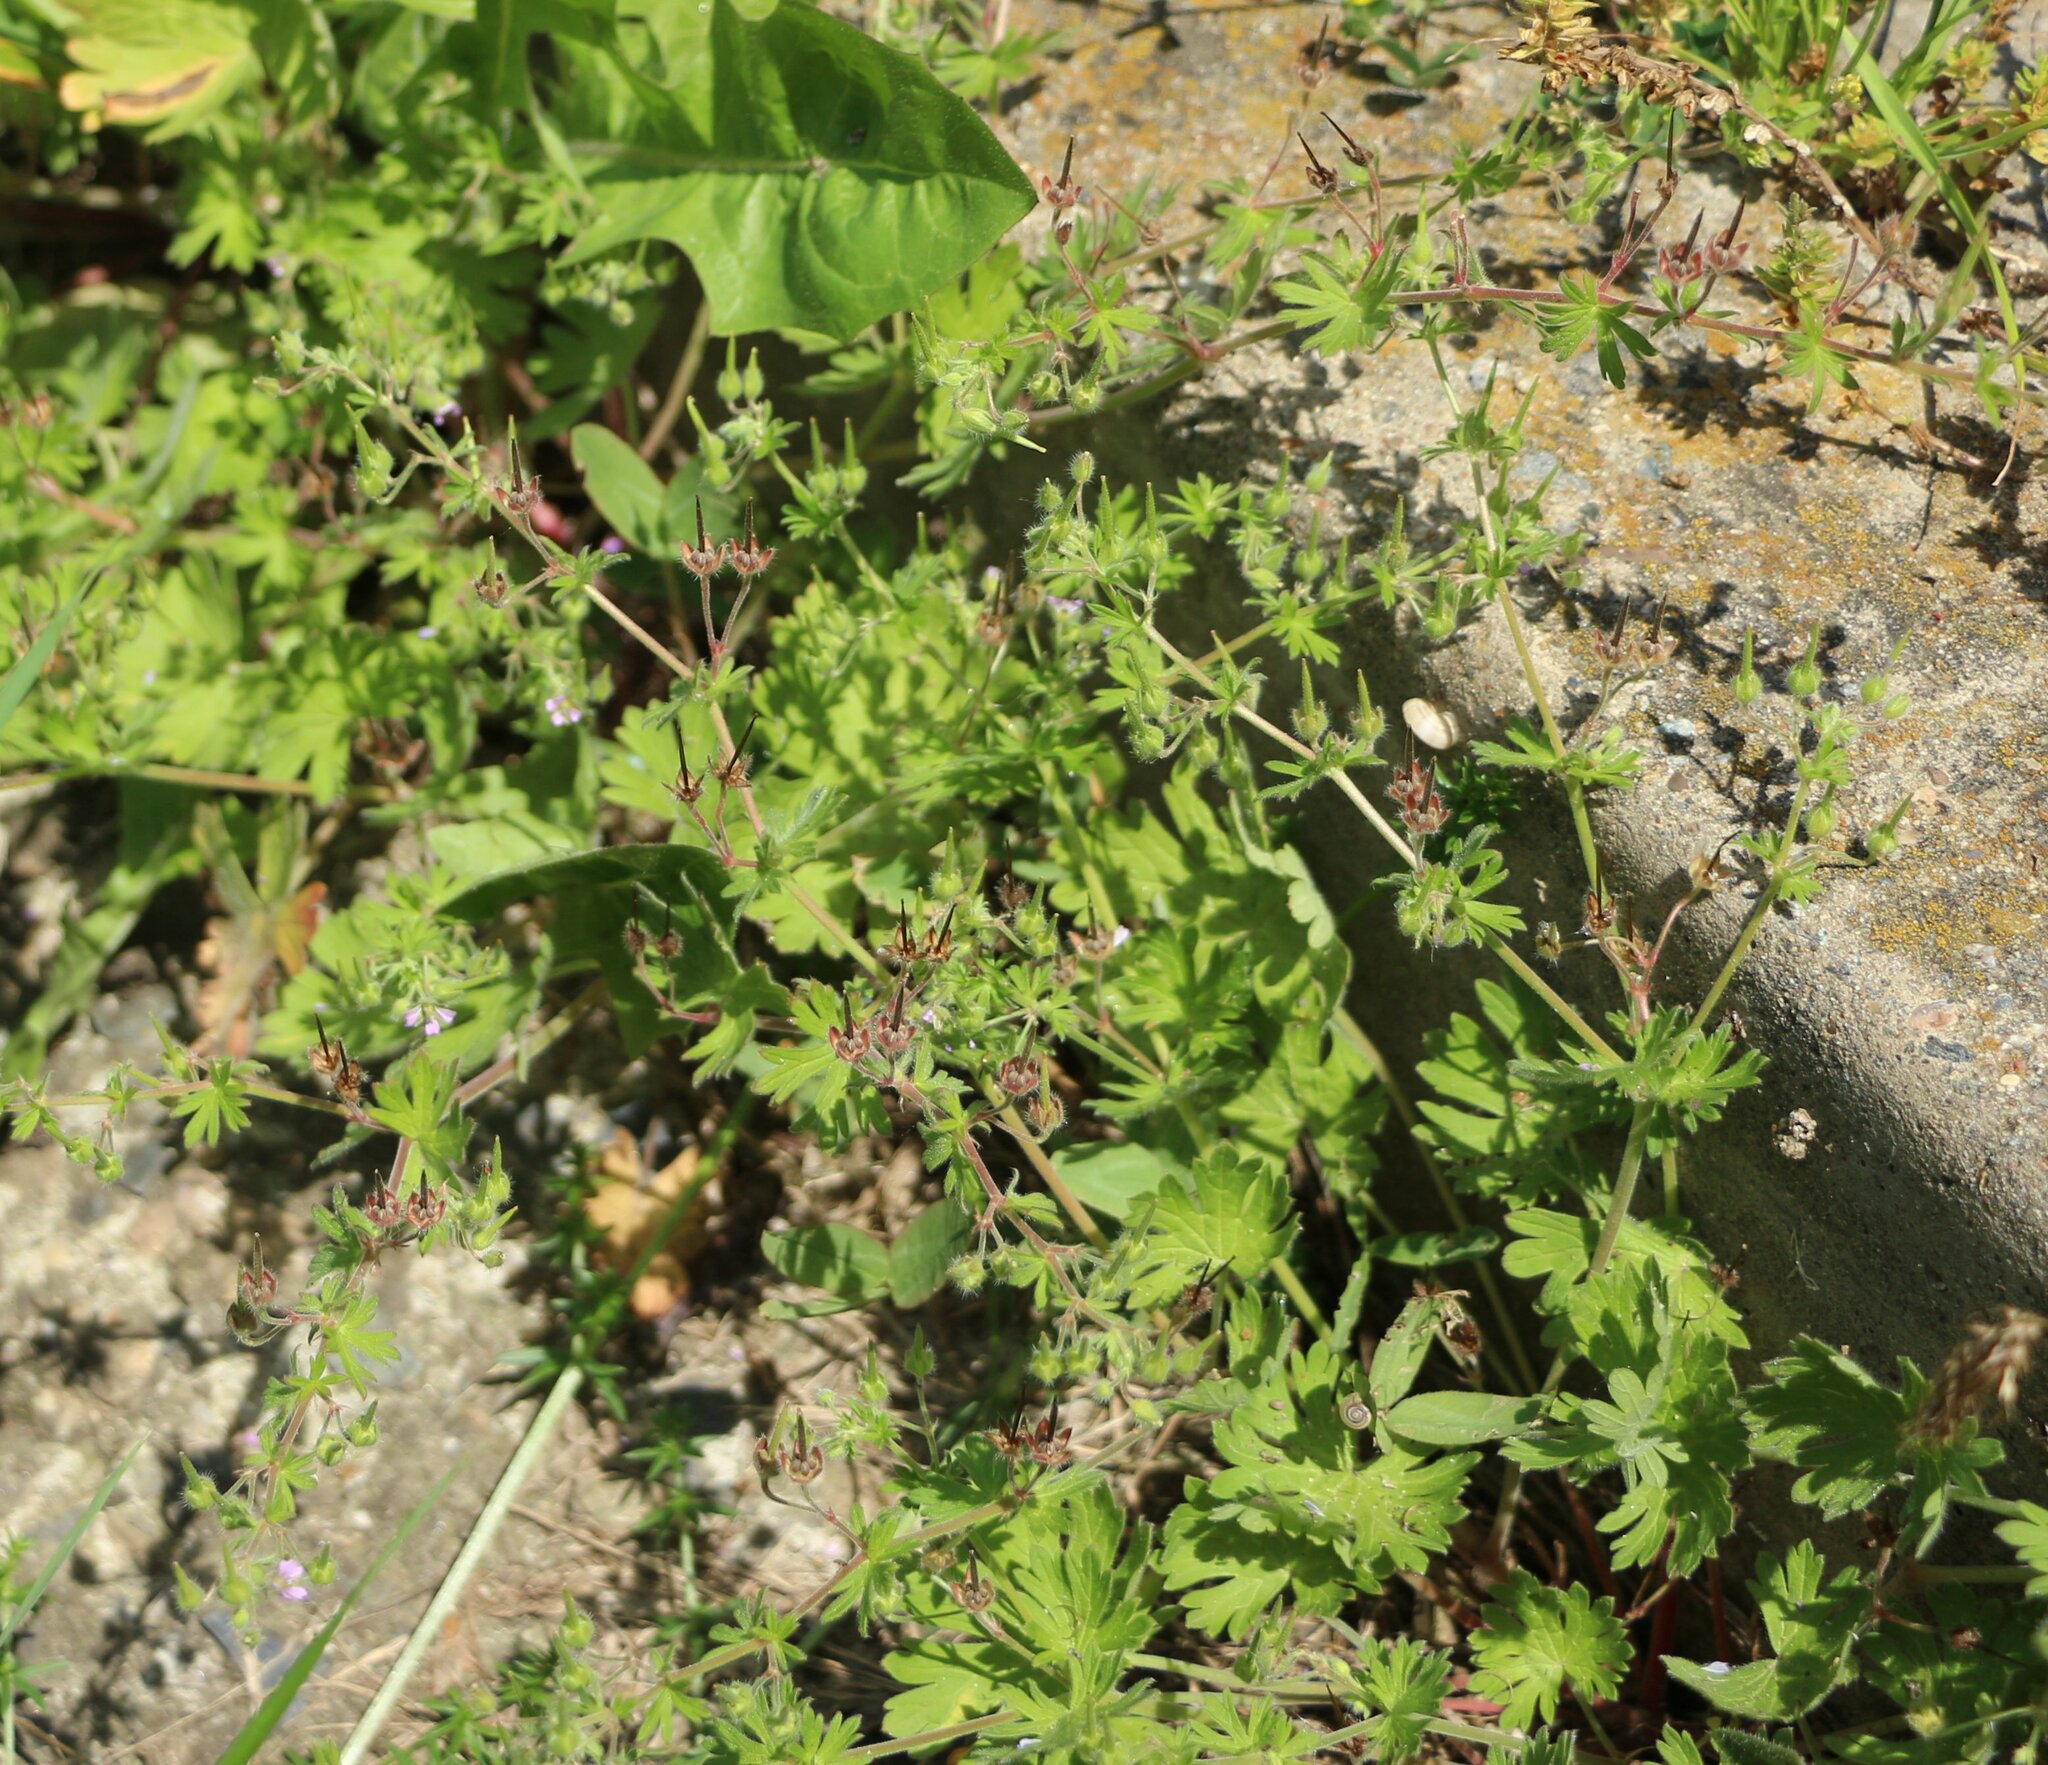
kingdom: Plantae
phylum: Tracheophyta
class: Magnoliopsida
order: Geraniales
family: Geraniaceae
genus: Geranium
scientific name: Geranium pusillum
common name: Small geranium
